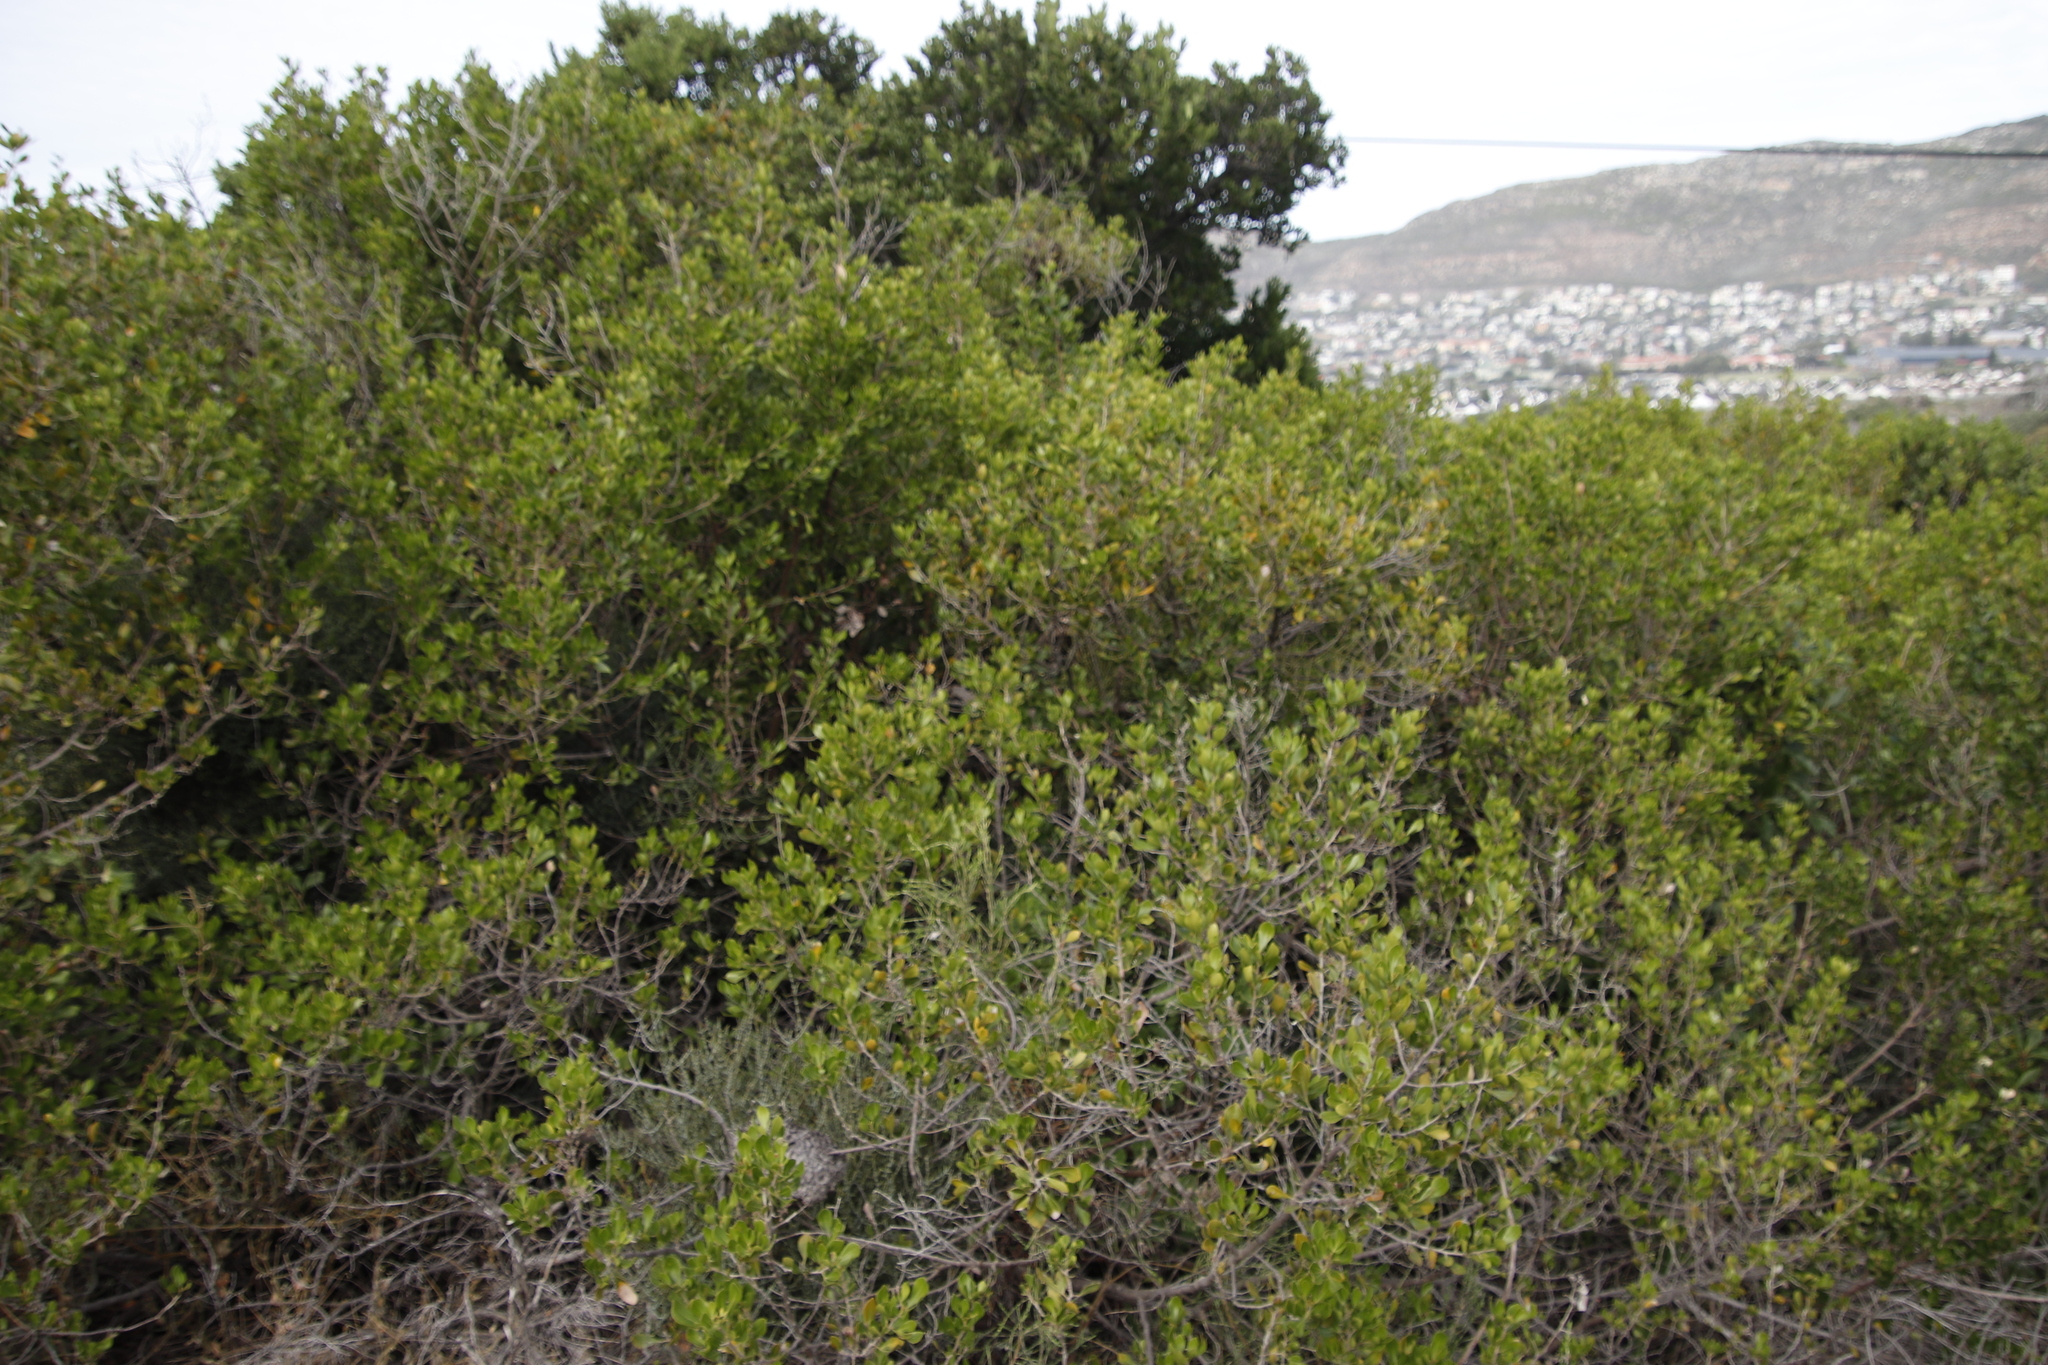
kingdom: Plantae
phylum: Tracheophyta
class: Magnoliopsida
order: Sapindales
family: Anacardiaceae
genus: Searsia
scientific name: Searsia lucida
